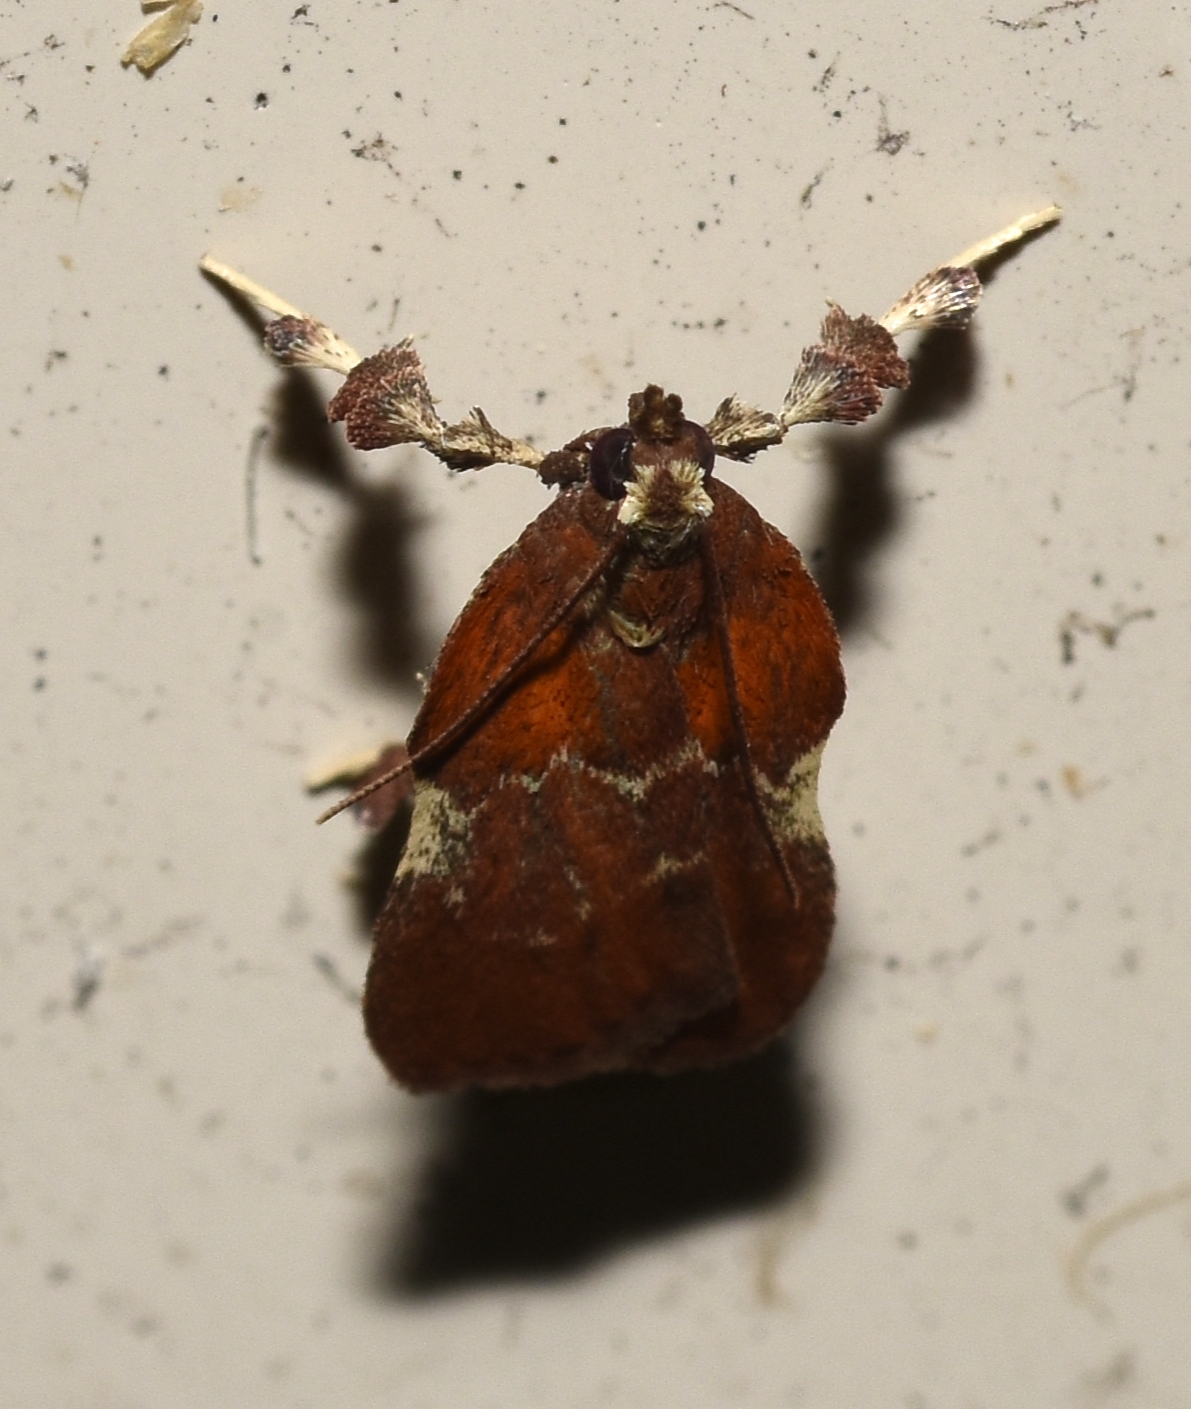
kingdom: Animalia
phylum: Arthropoda
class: Insecta
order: Lepidoptera
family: Pyralidae
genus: Galasa
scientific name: Galasa nigrinodis
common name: Boxwood leaftier moth
